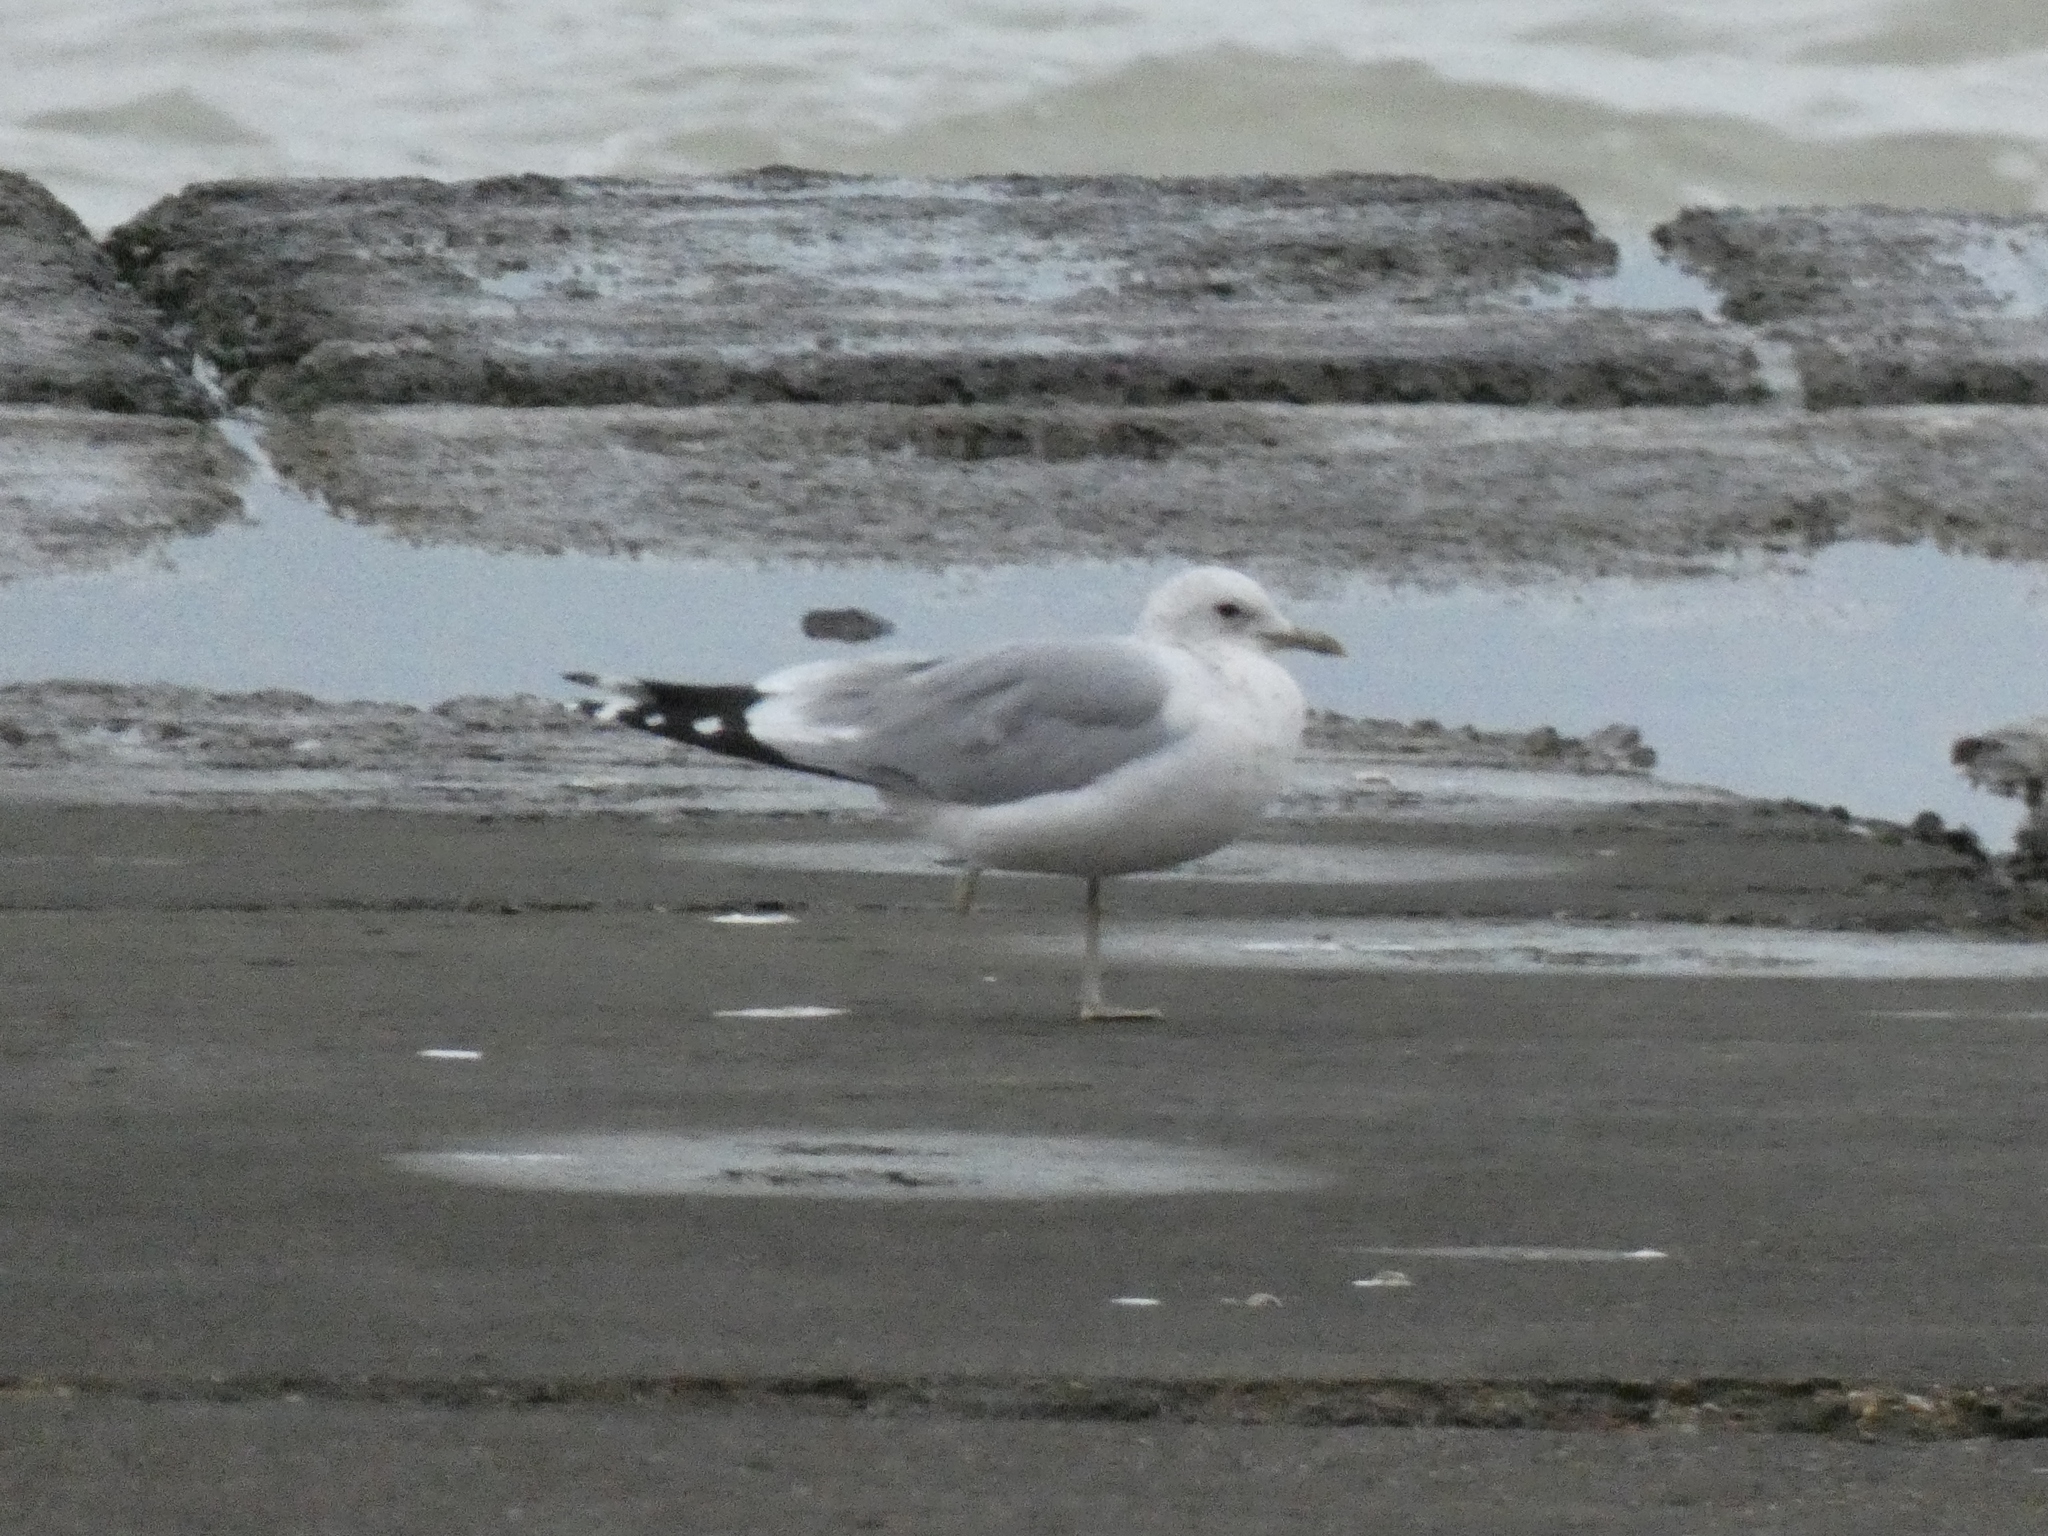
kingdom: Animalia
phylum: Chordata
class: Aves
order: Charadriiformes
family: Laridae
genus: Larus
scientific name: Larus canus
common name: Mew gull
